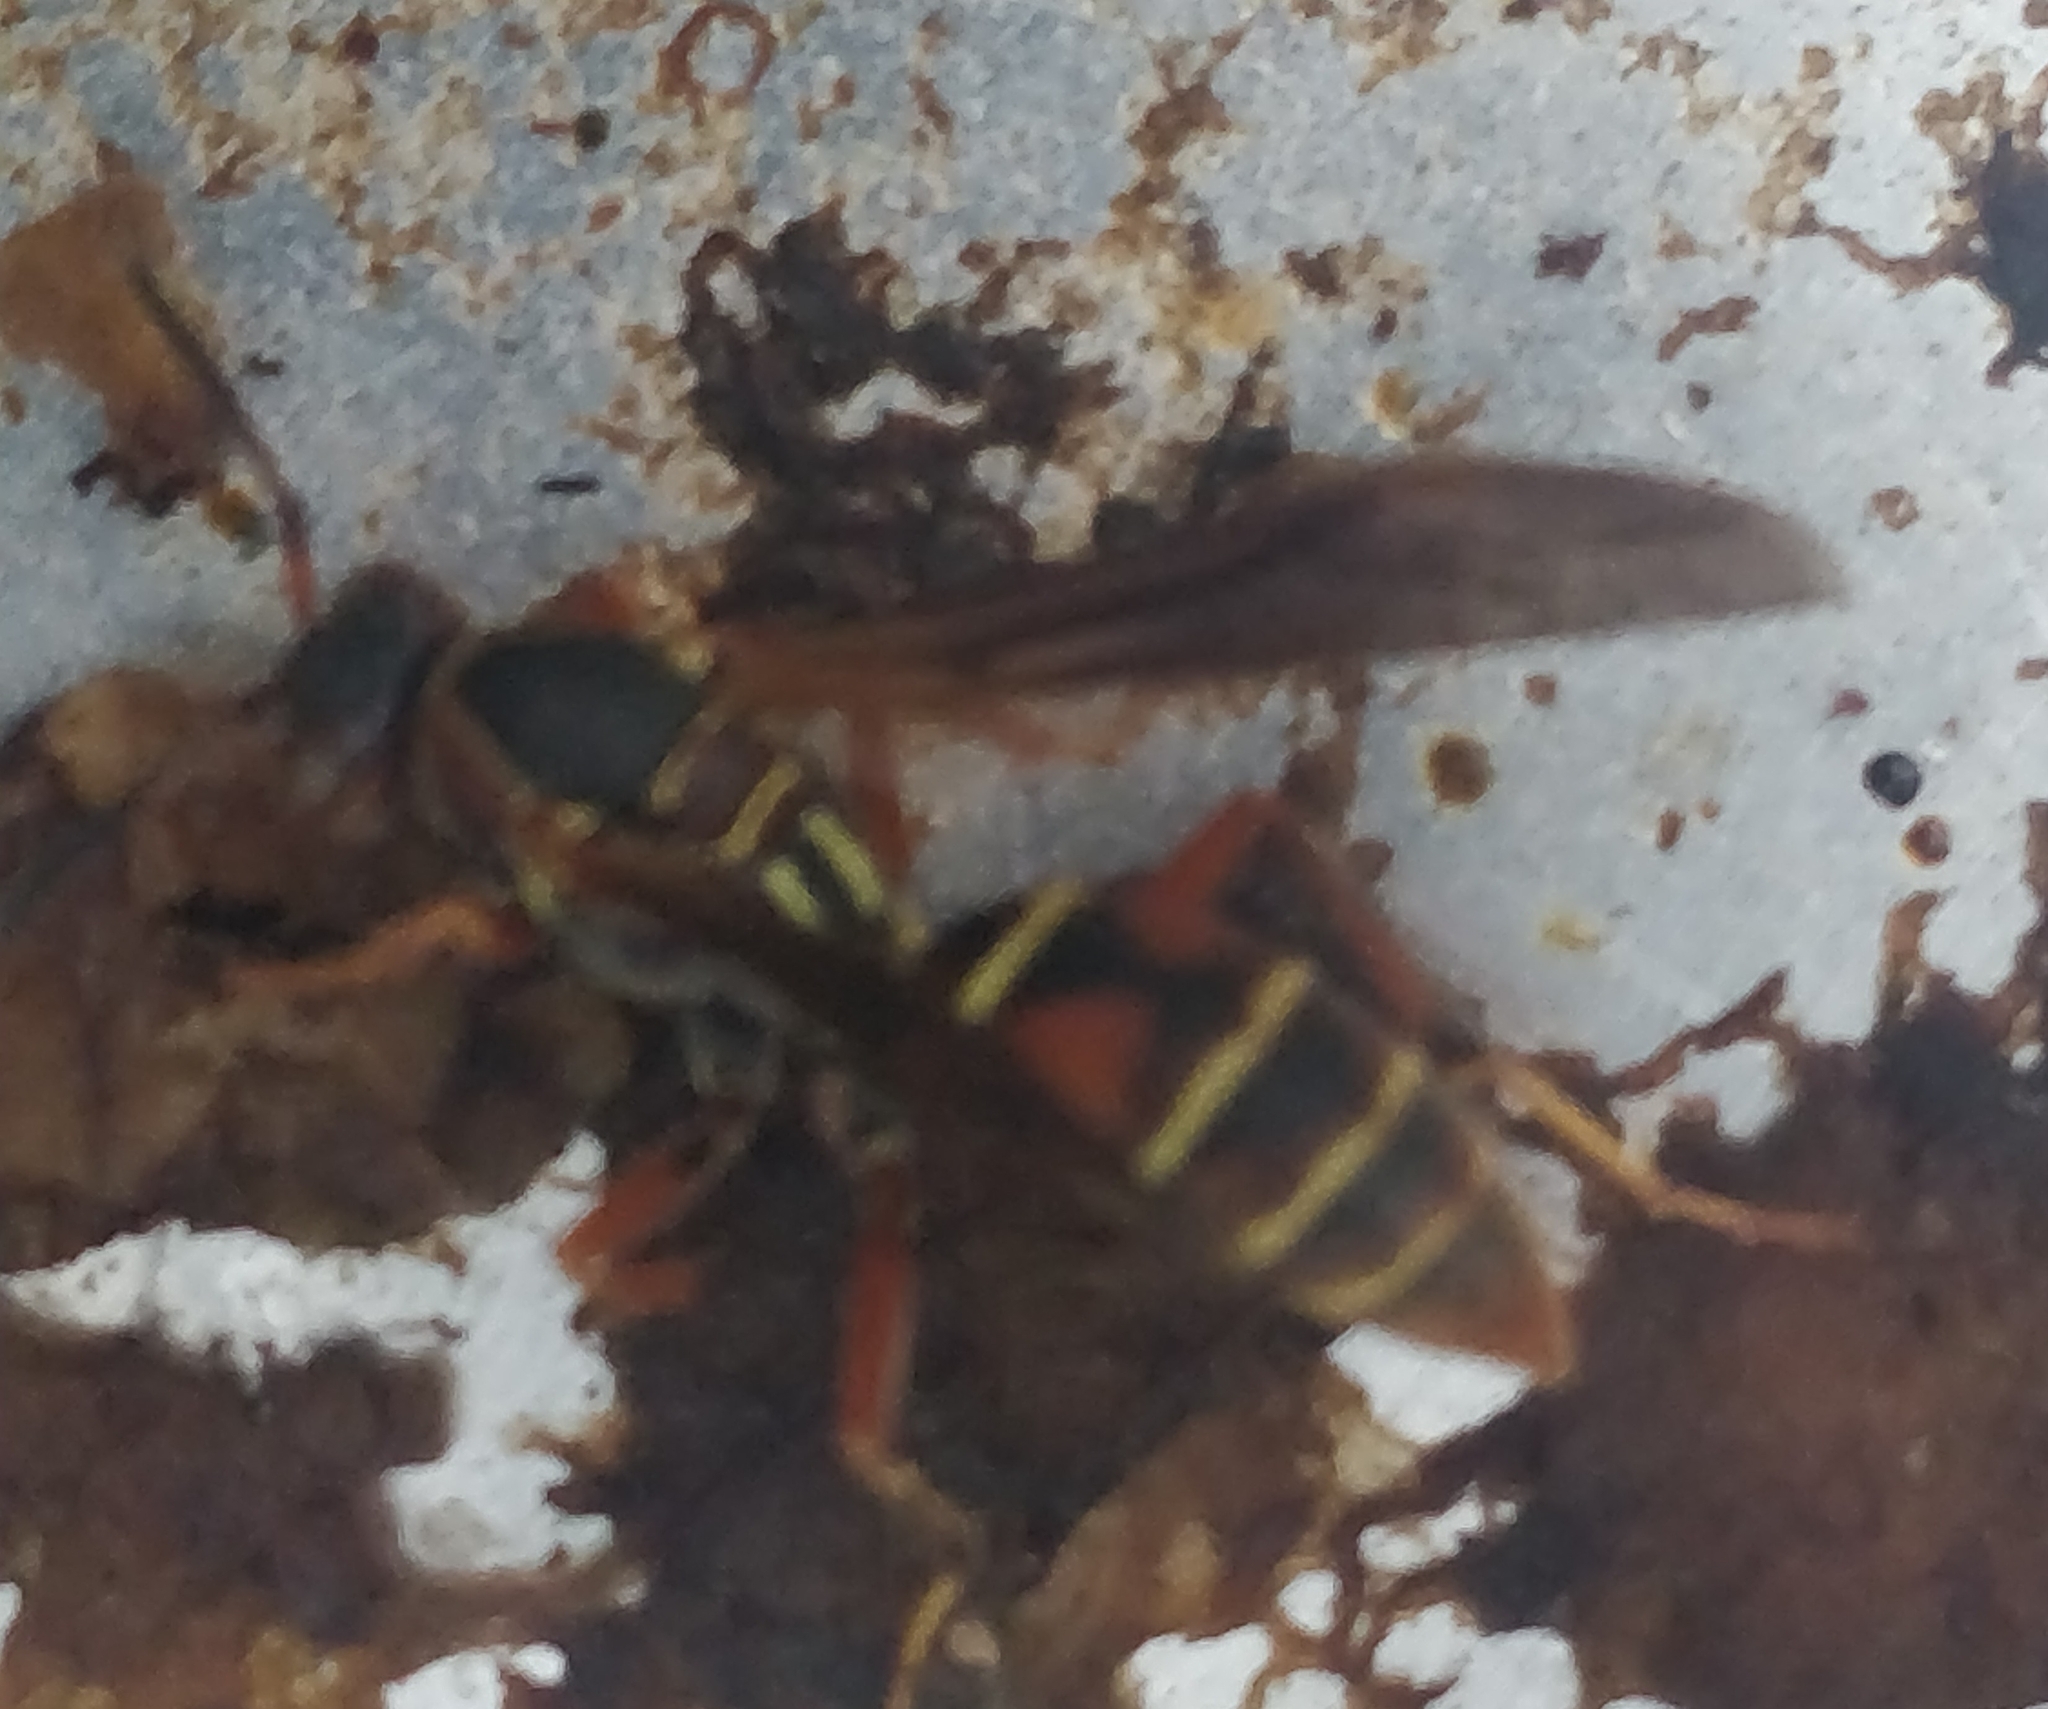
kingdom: Animalia
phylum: Arthropoda
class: Insecta
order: Hymenoptera
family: Eumenidae
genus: Polistes
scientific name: Polistes fuscatus
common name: Dark paper wasp
